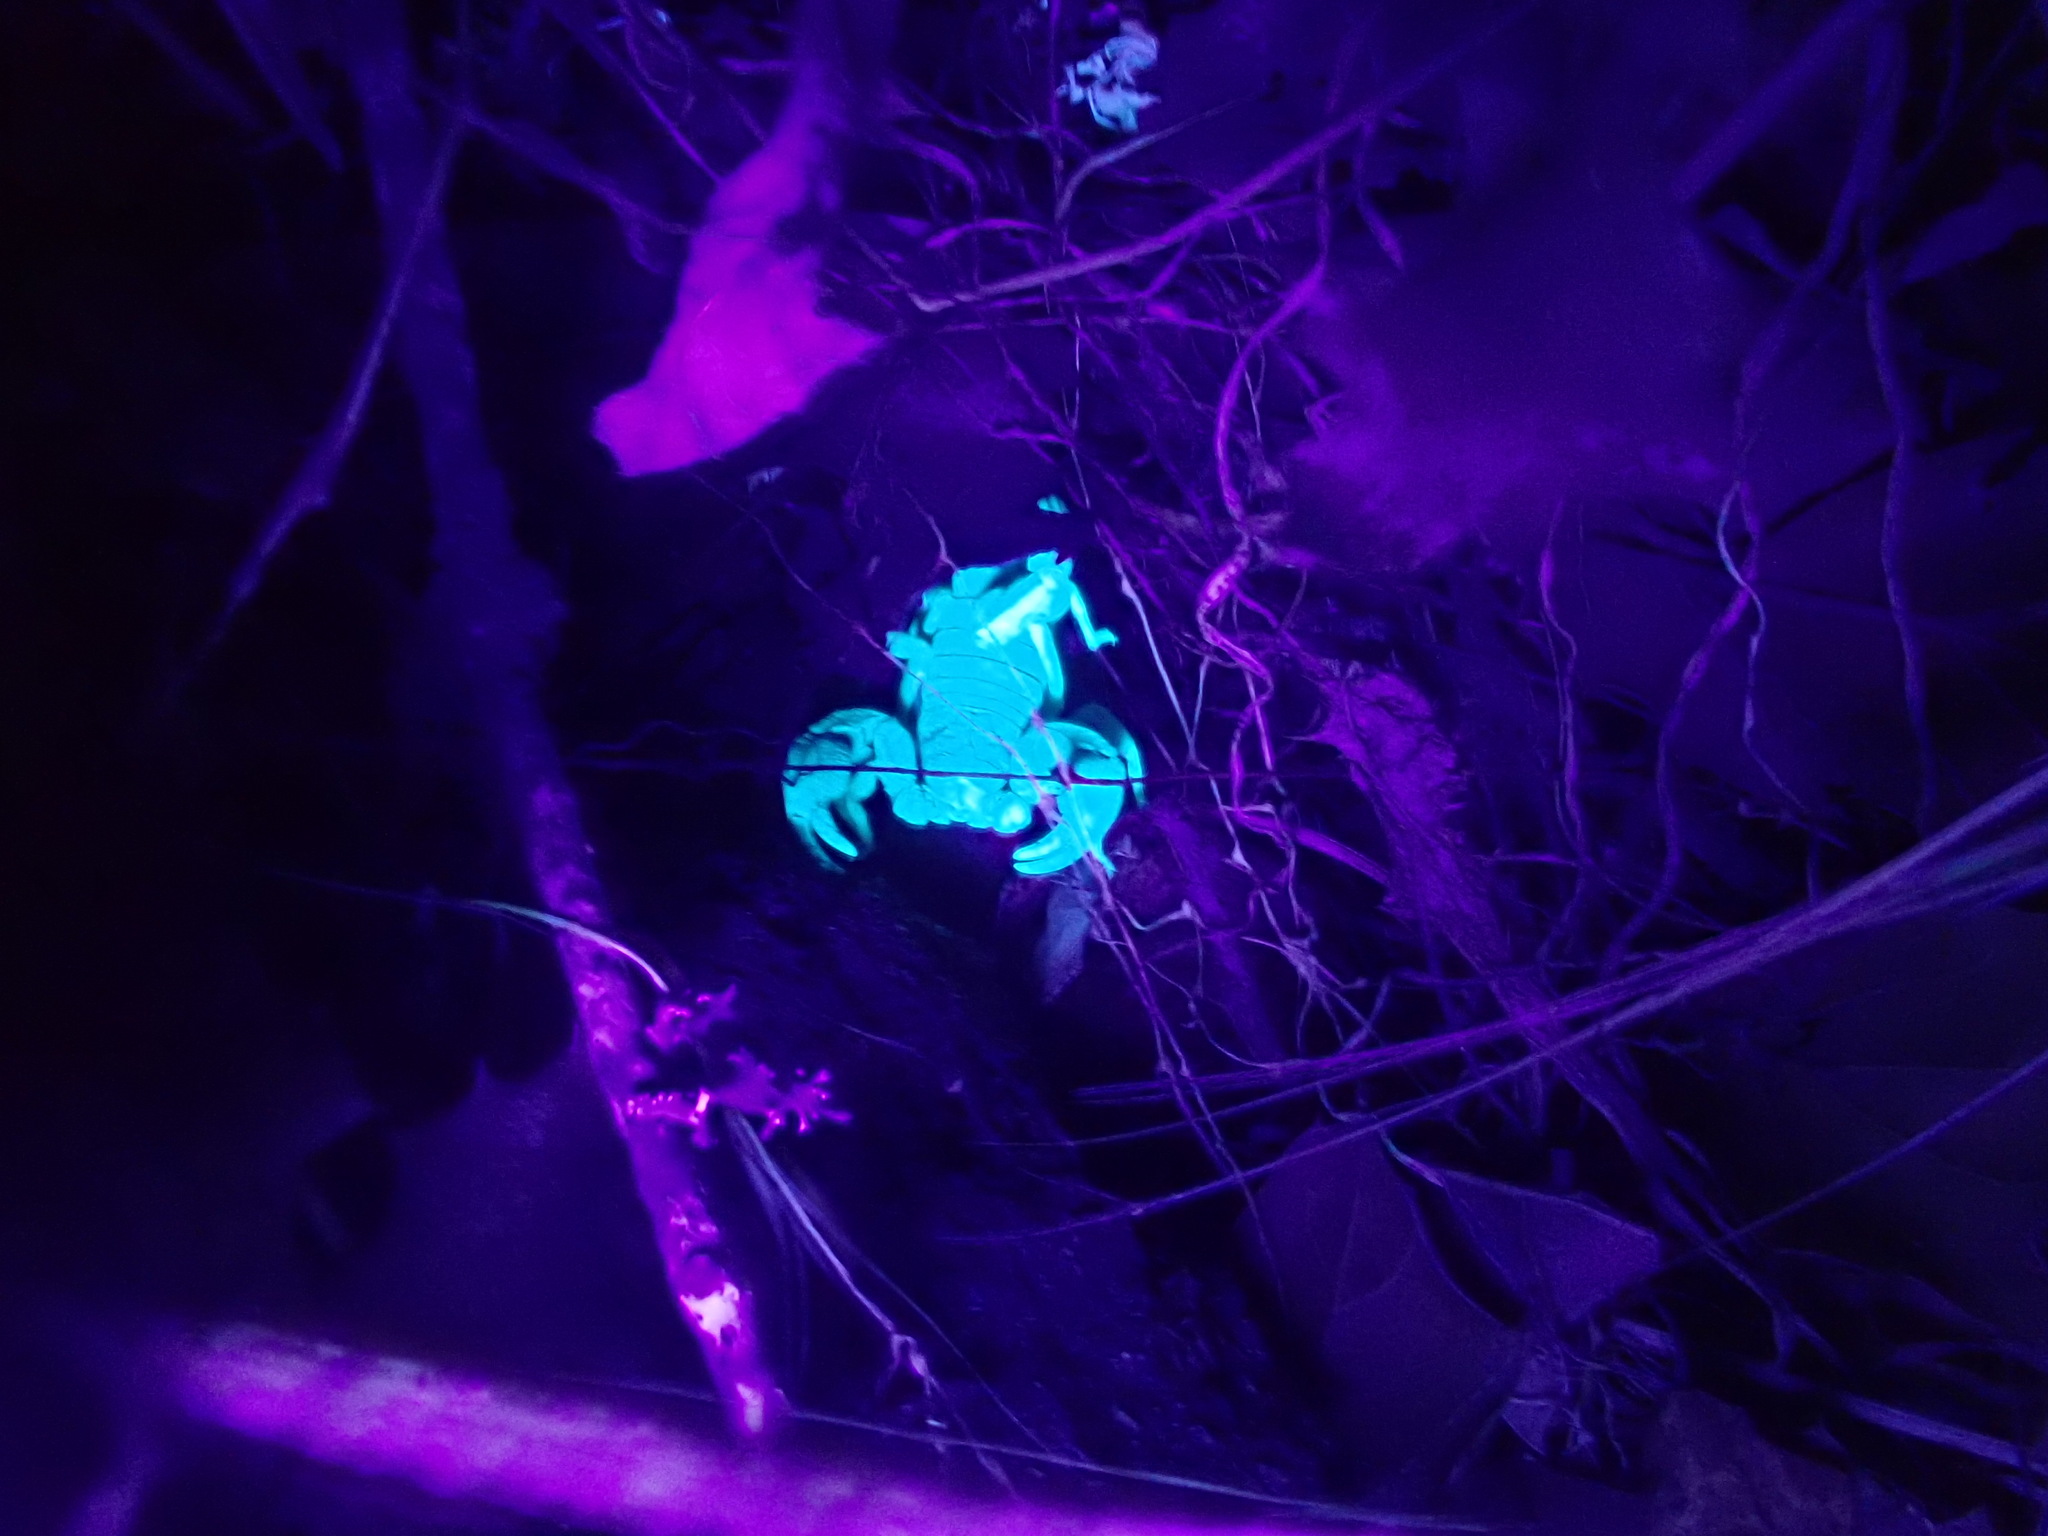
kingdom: Animalia
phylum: Arthropoda
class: Arachnida
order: Scorpiones
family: Chactidae
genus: Uroctonus
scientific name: Uroctonus mordax
